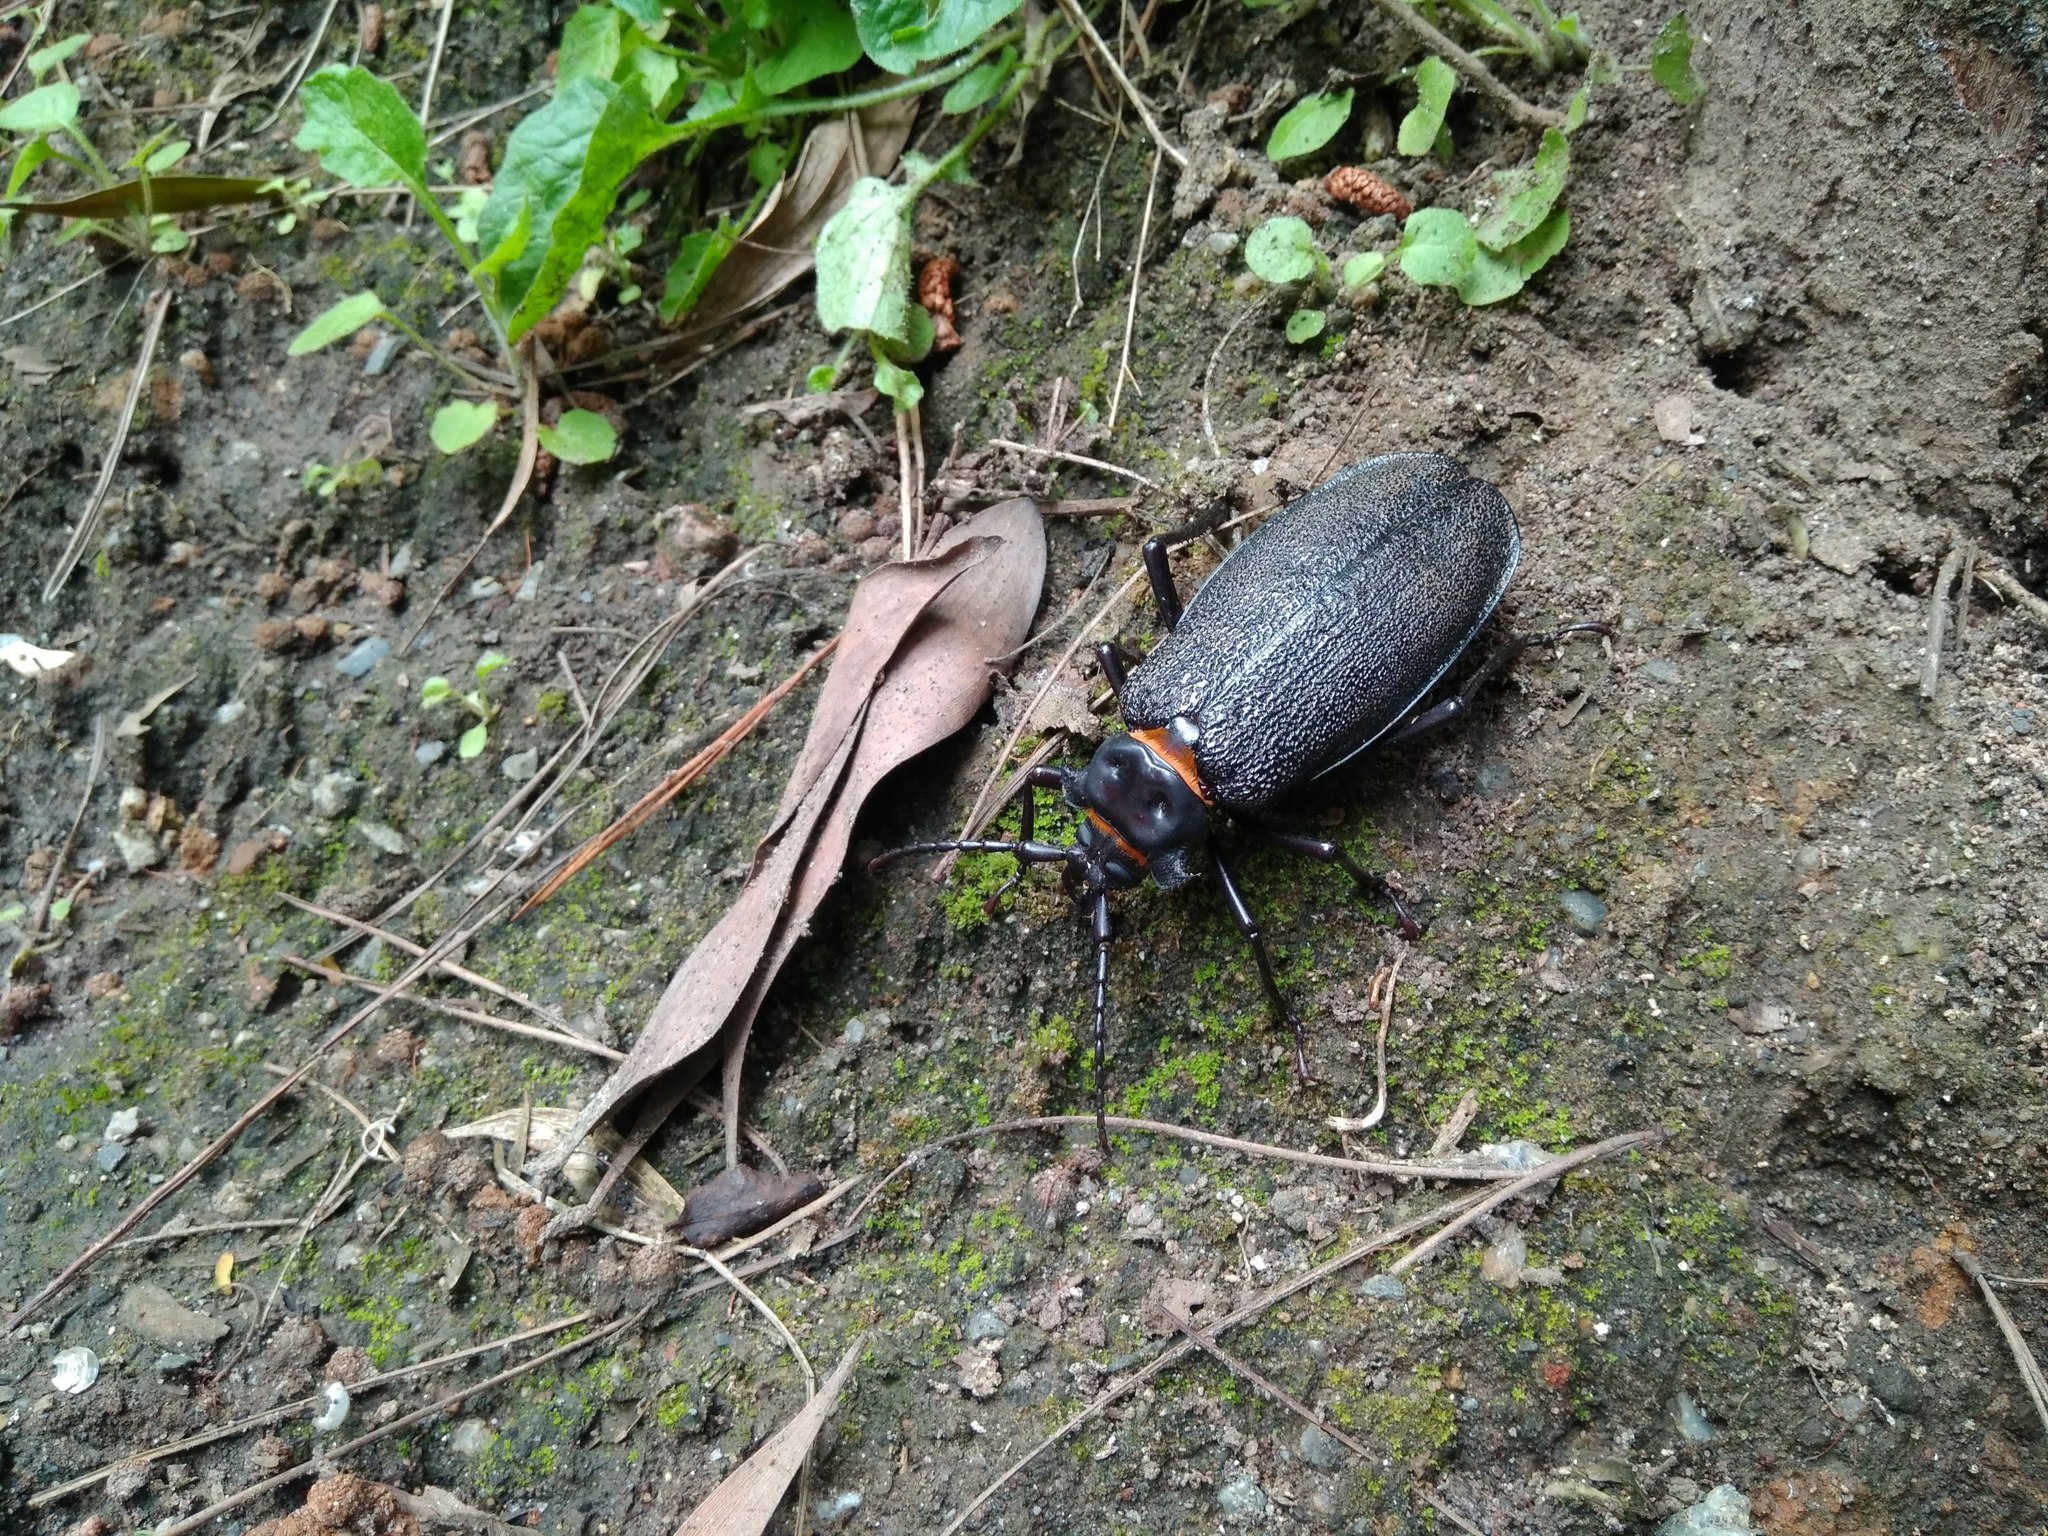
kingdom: Animalia
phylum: Arthropoda
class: Insecta
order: Coleoptera
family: Cerambycidae
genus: Acanthinodera
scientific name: Acanthinodera cumingii
